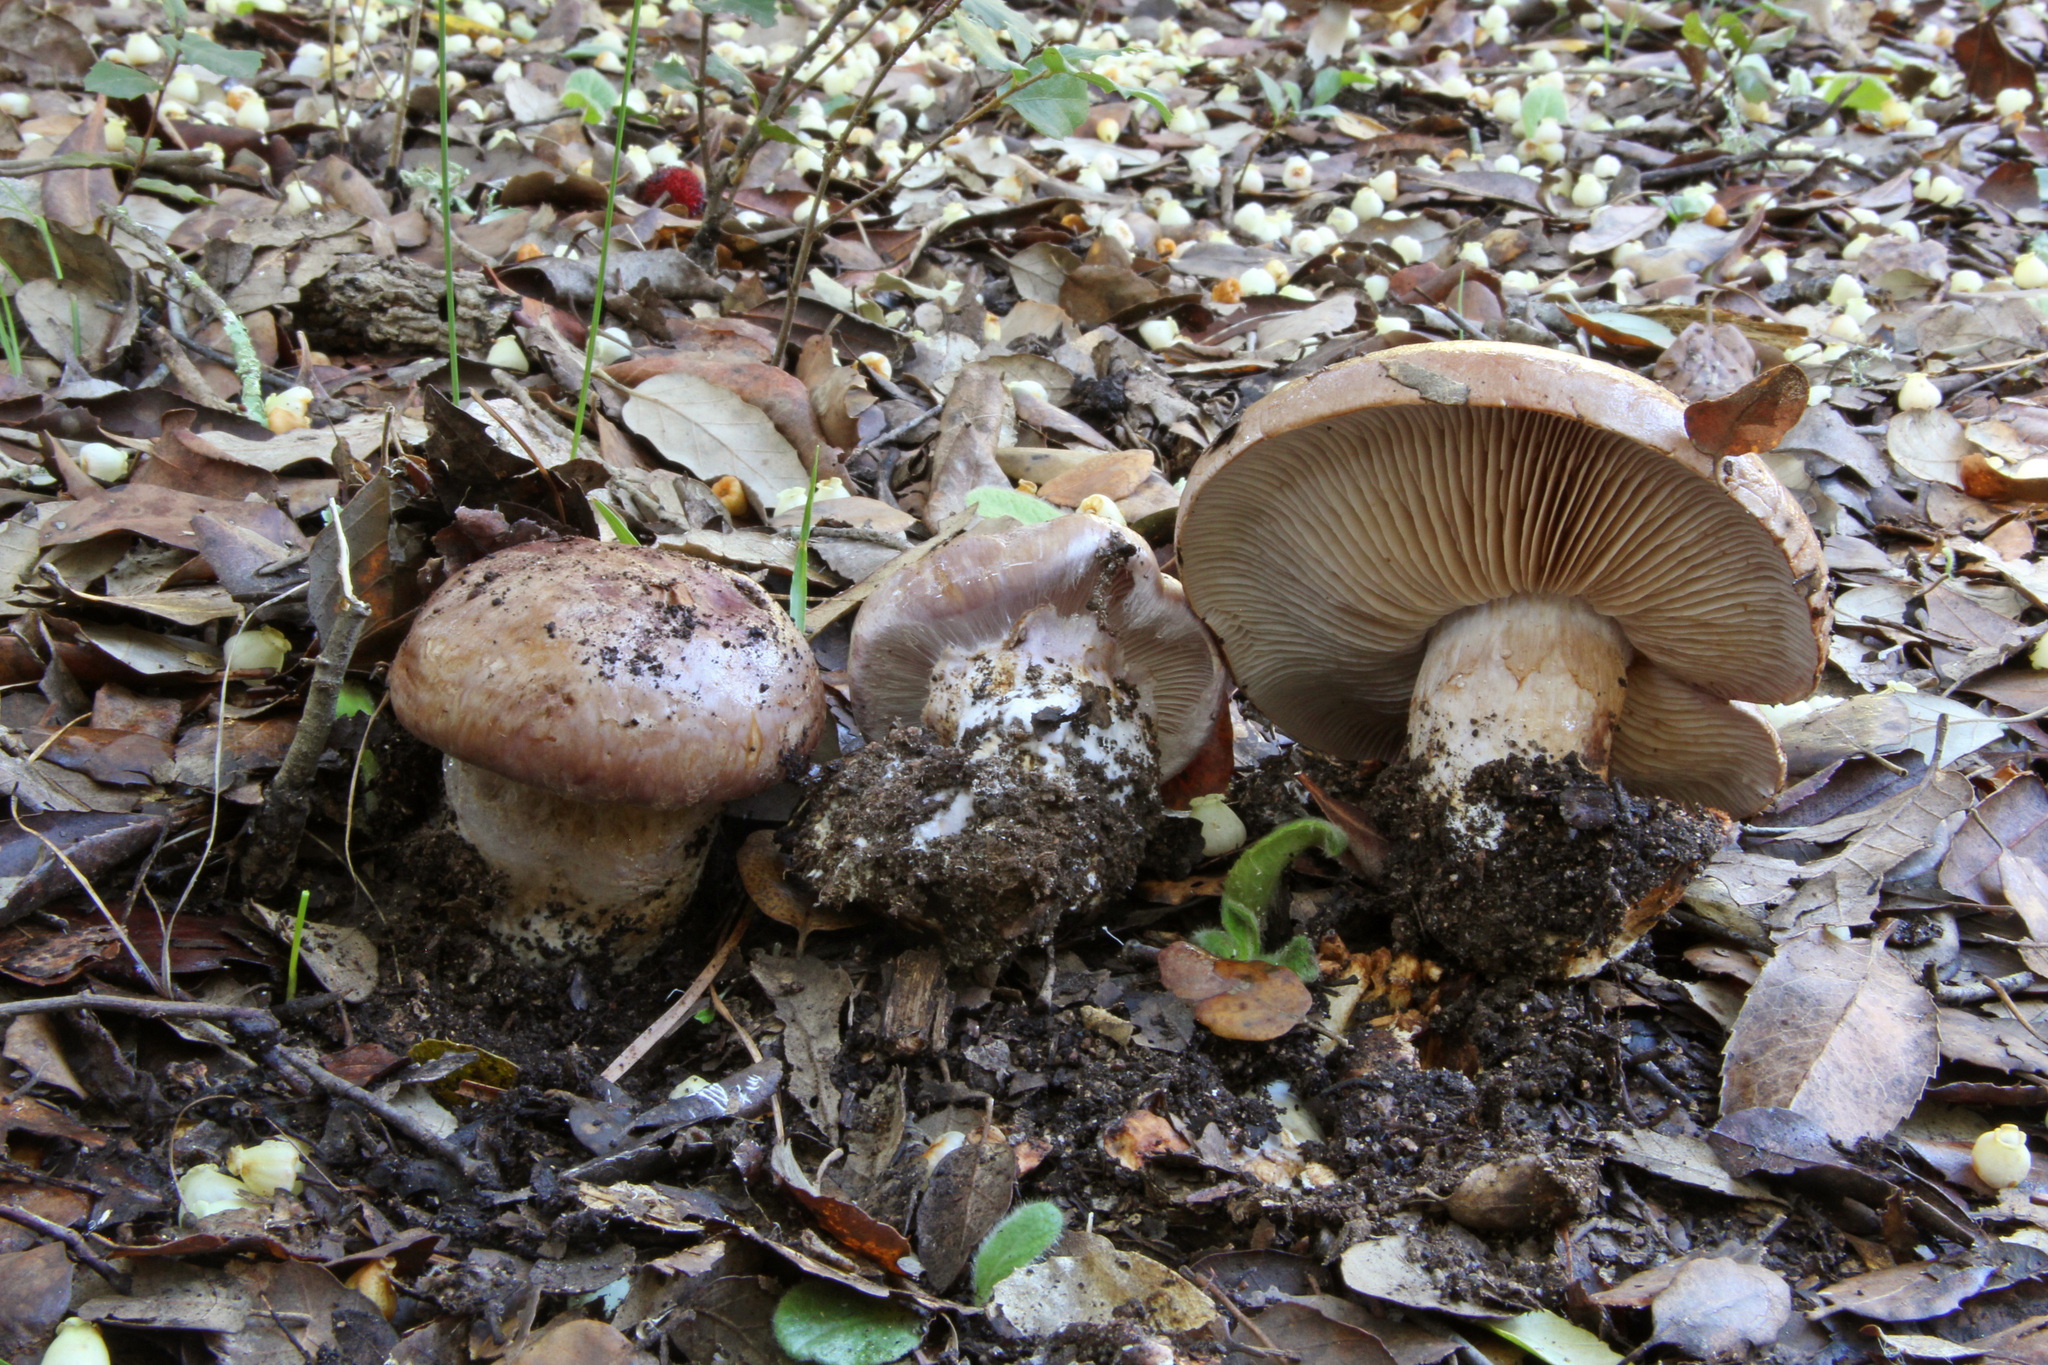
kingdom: Fungi
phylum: Basidiomycota
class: Agaricomycetes
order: Agaricales
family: Cortinariaceae
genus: Phlegmacium
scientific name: Phlegmacium balteatocumatile
